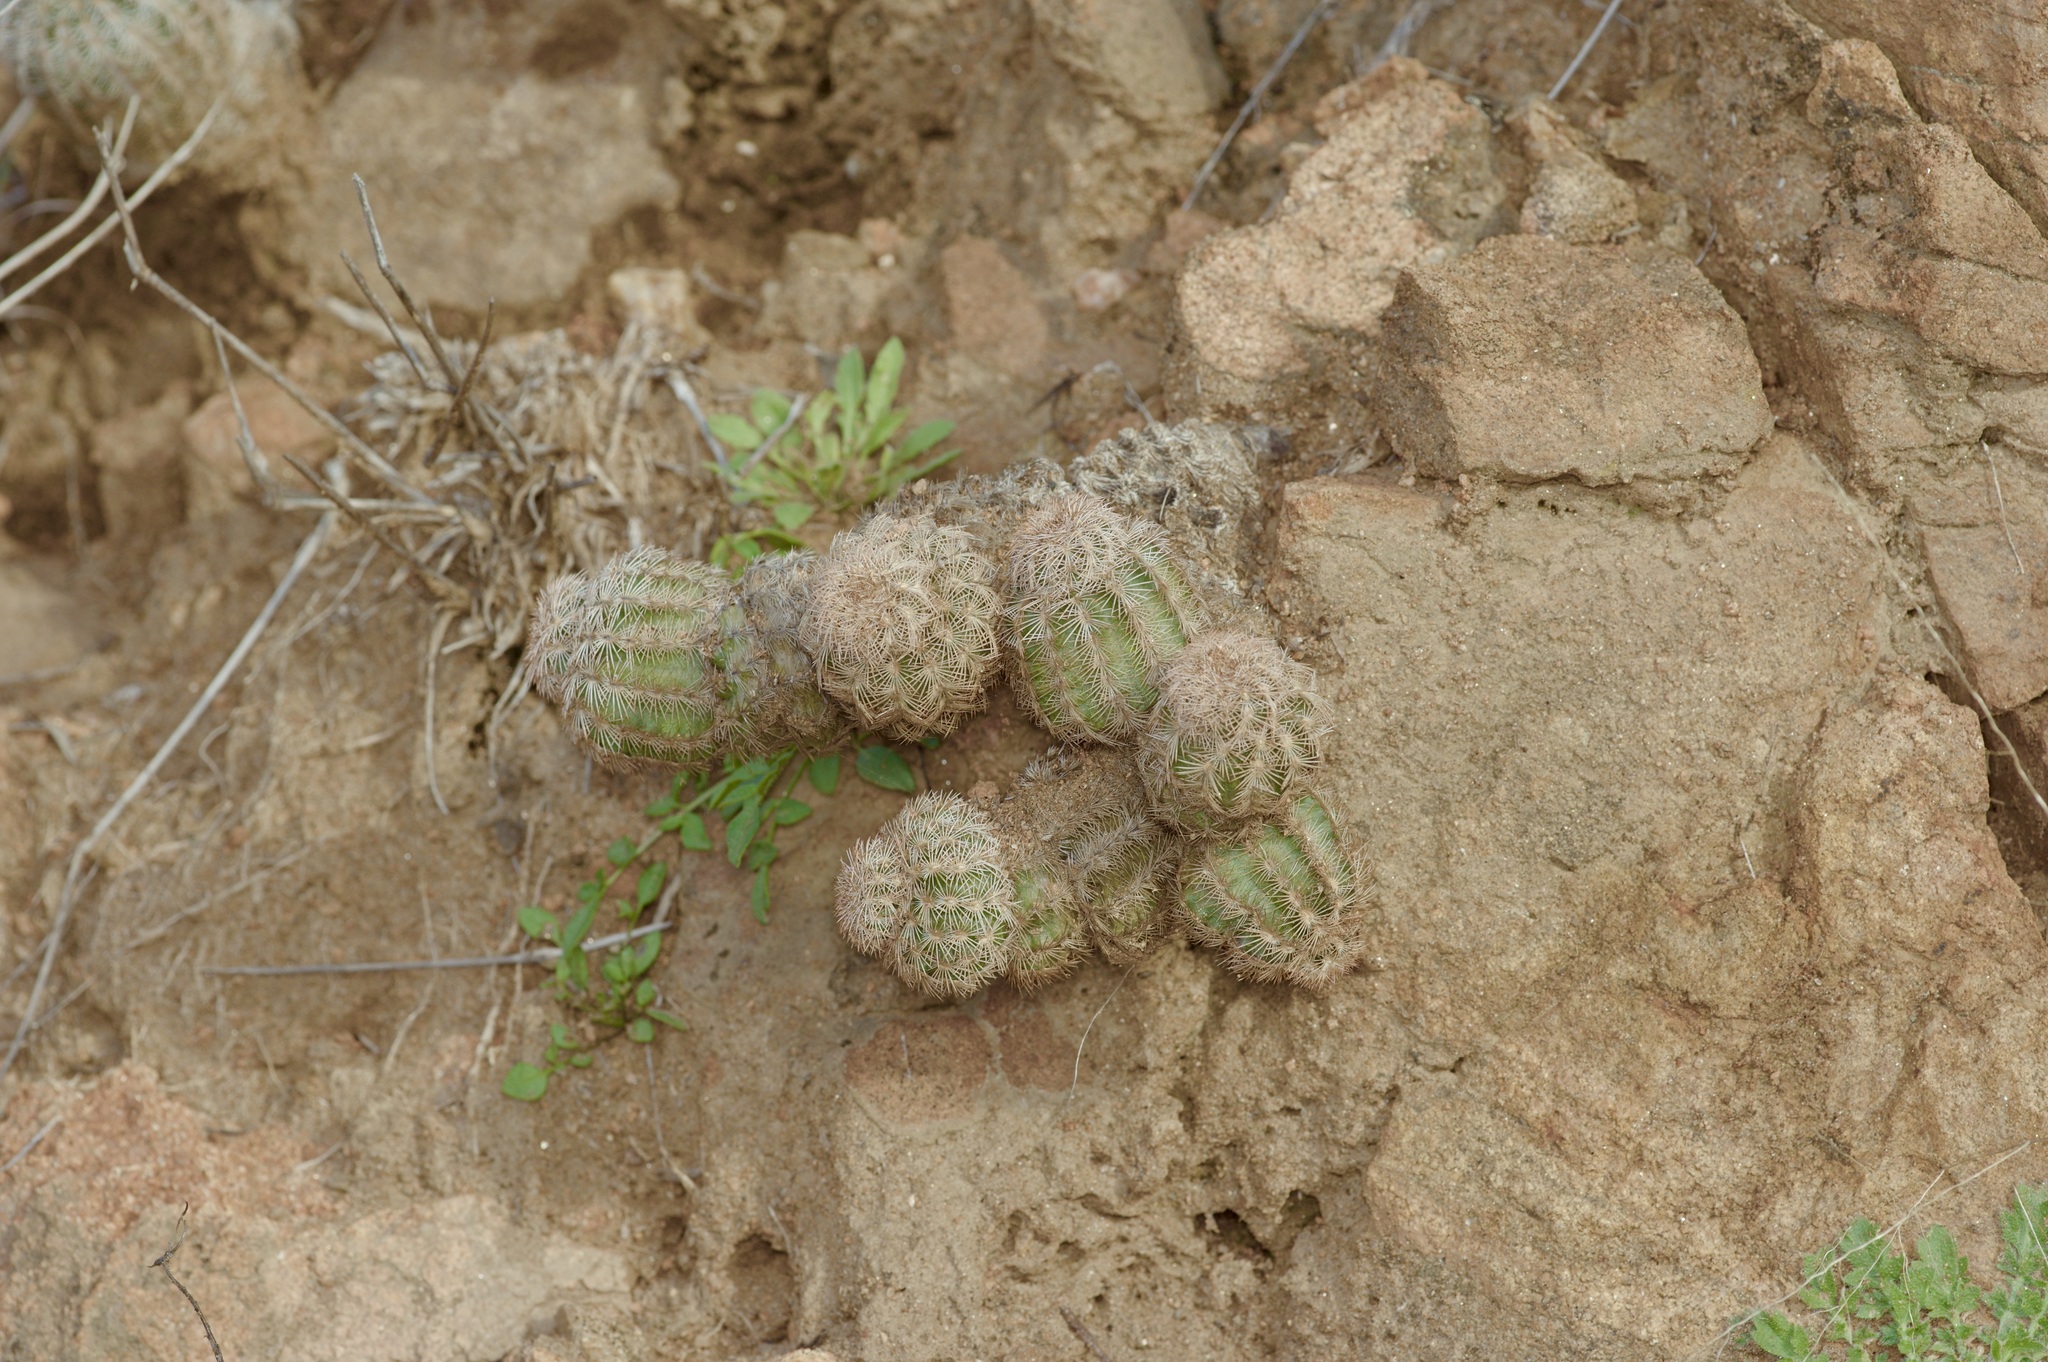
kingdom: Plantae
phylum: Tracheophyta
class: Magnoliopsida
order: Caryophyllales
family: Cactaceae
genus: Echinocereus
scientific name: Echinocereus reichenbachii
